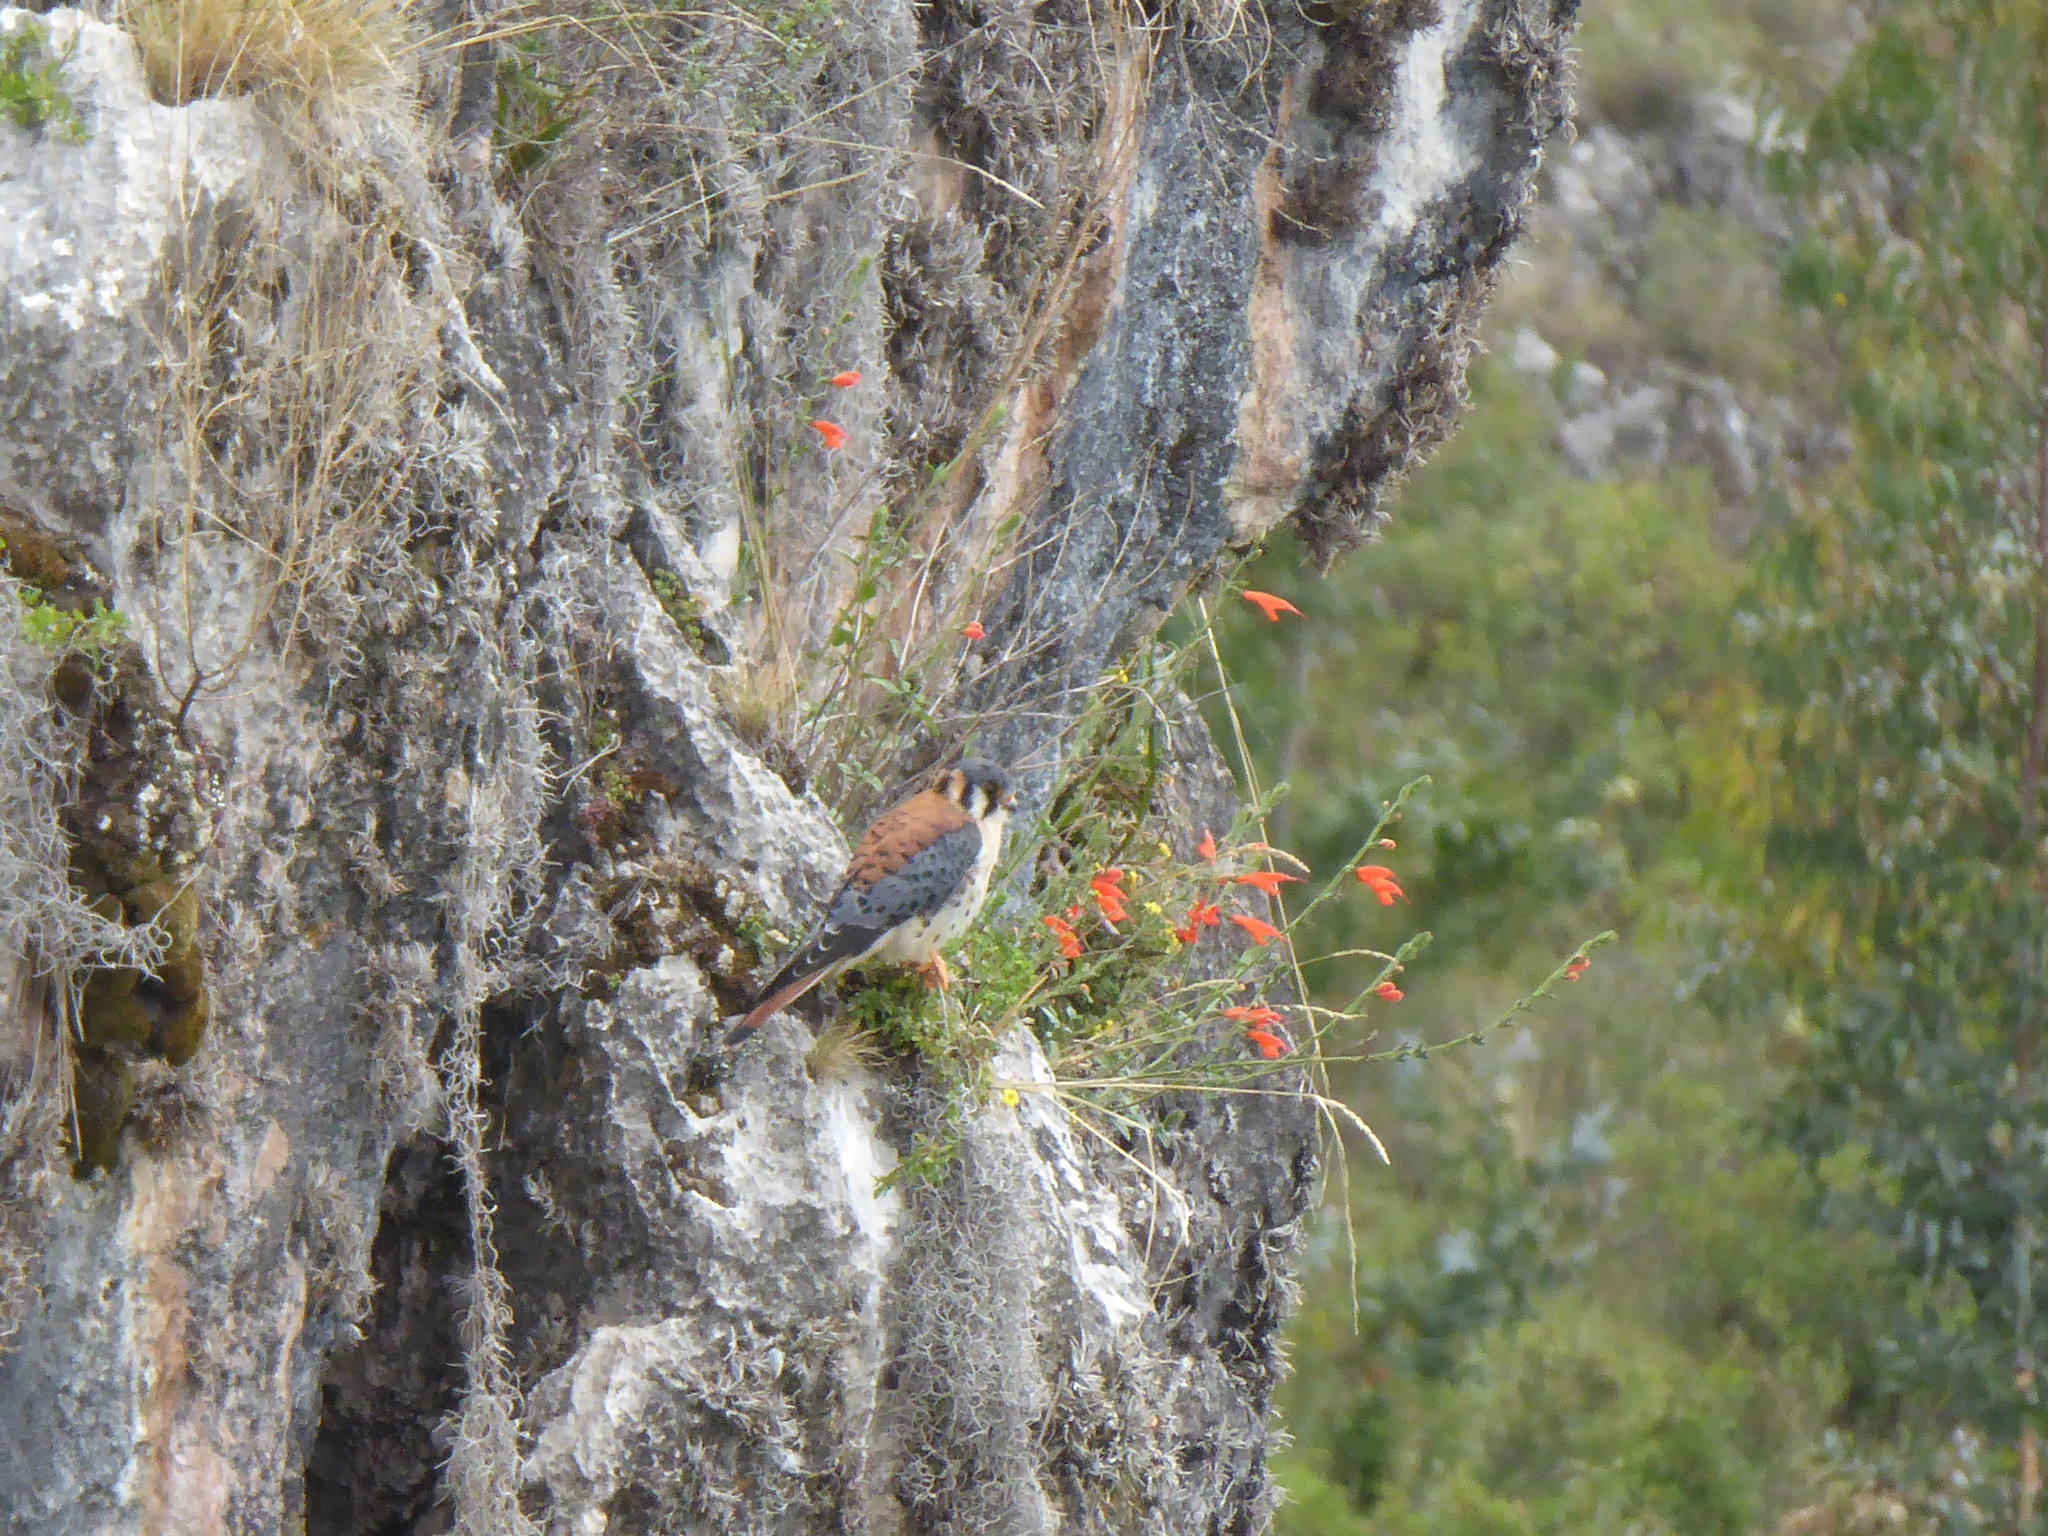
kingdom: Animalia
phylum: Chordata
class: Aves
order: Falconiformes
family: Falconidae
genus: Falco
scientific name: Falco sparverius
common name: American kestrel
